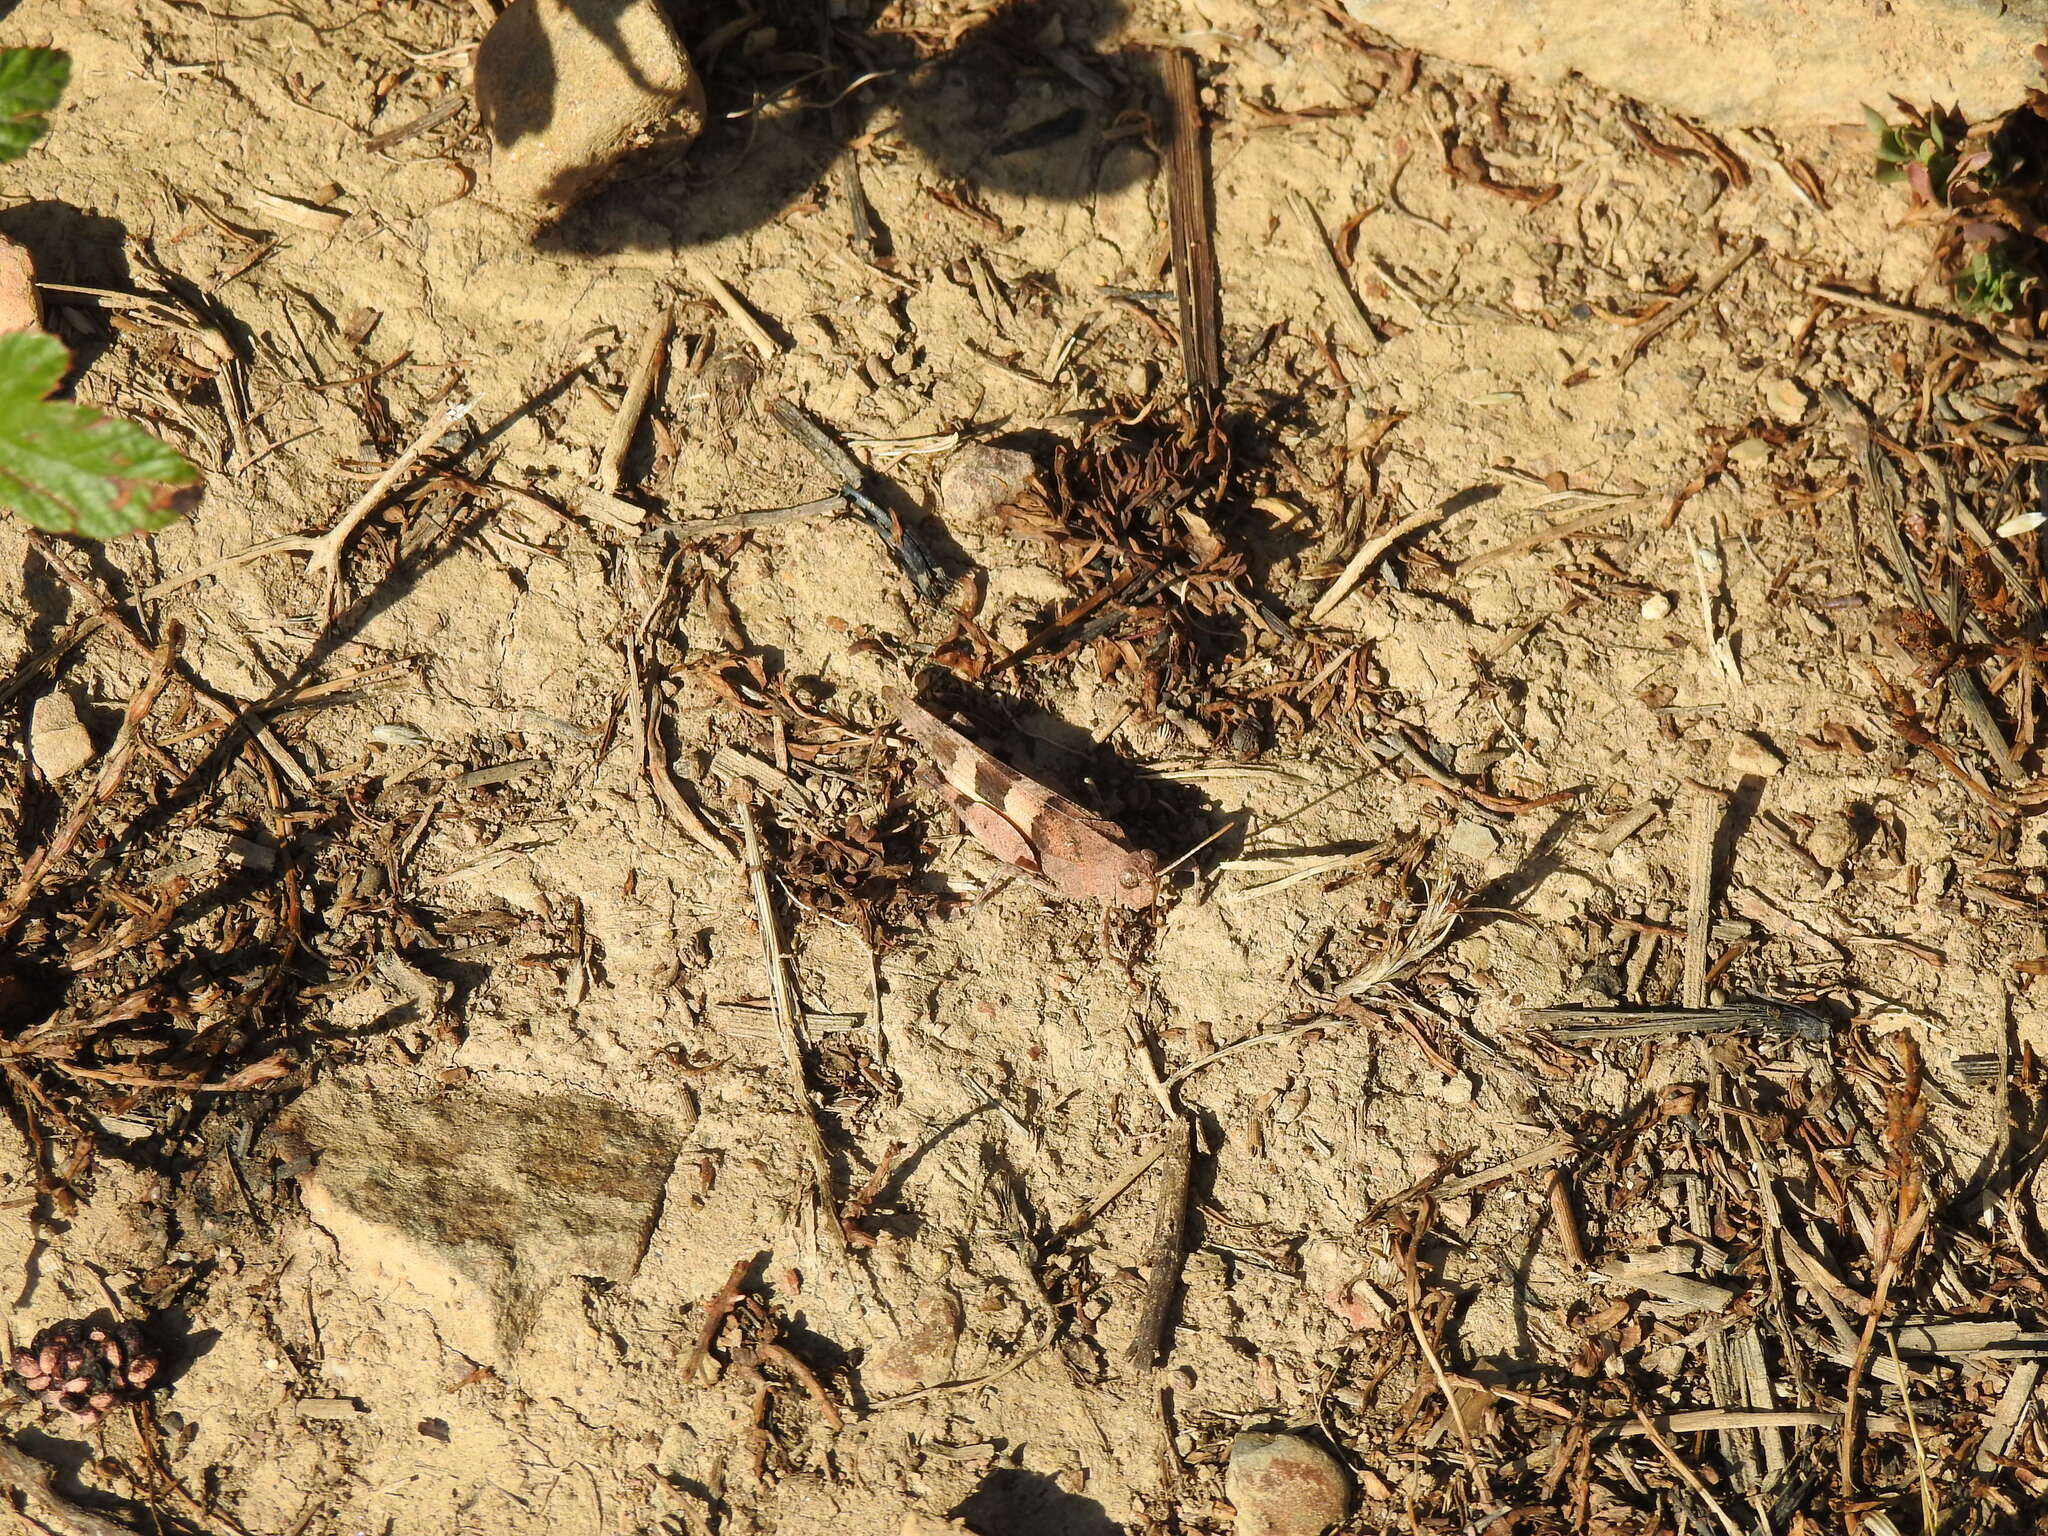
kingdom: Animalia
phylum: Arthropoda
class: Insecta
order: Orthoptera
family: Acrididae
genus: Oedipoda
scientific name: Oedipoda caerulescens
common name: Blue-winged grasshopper
